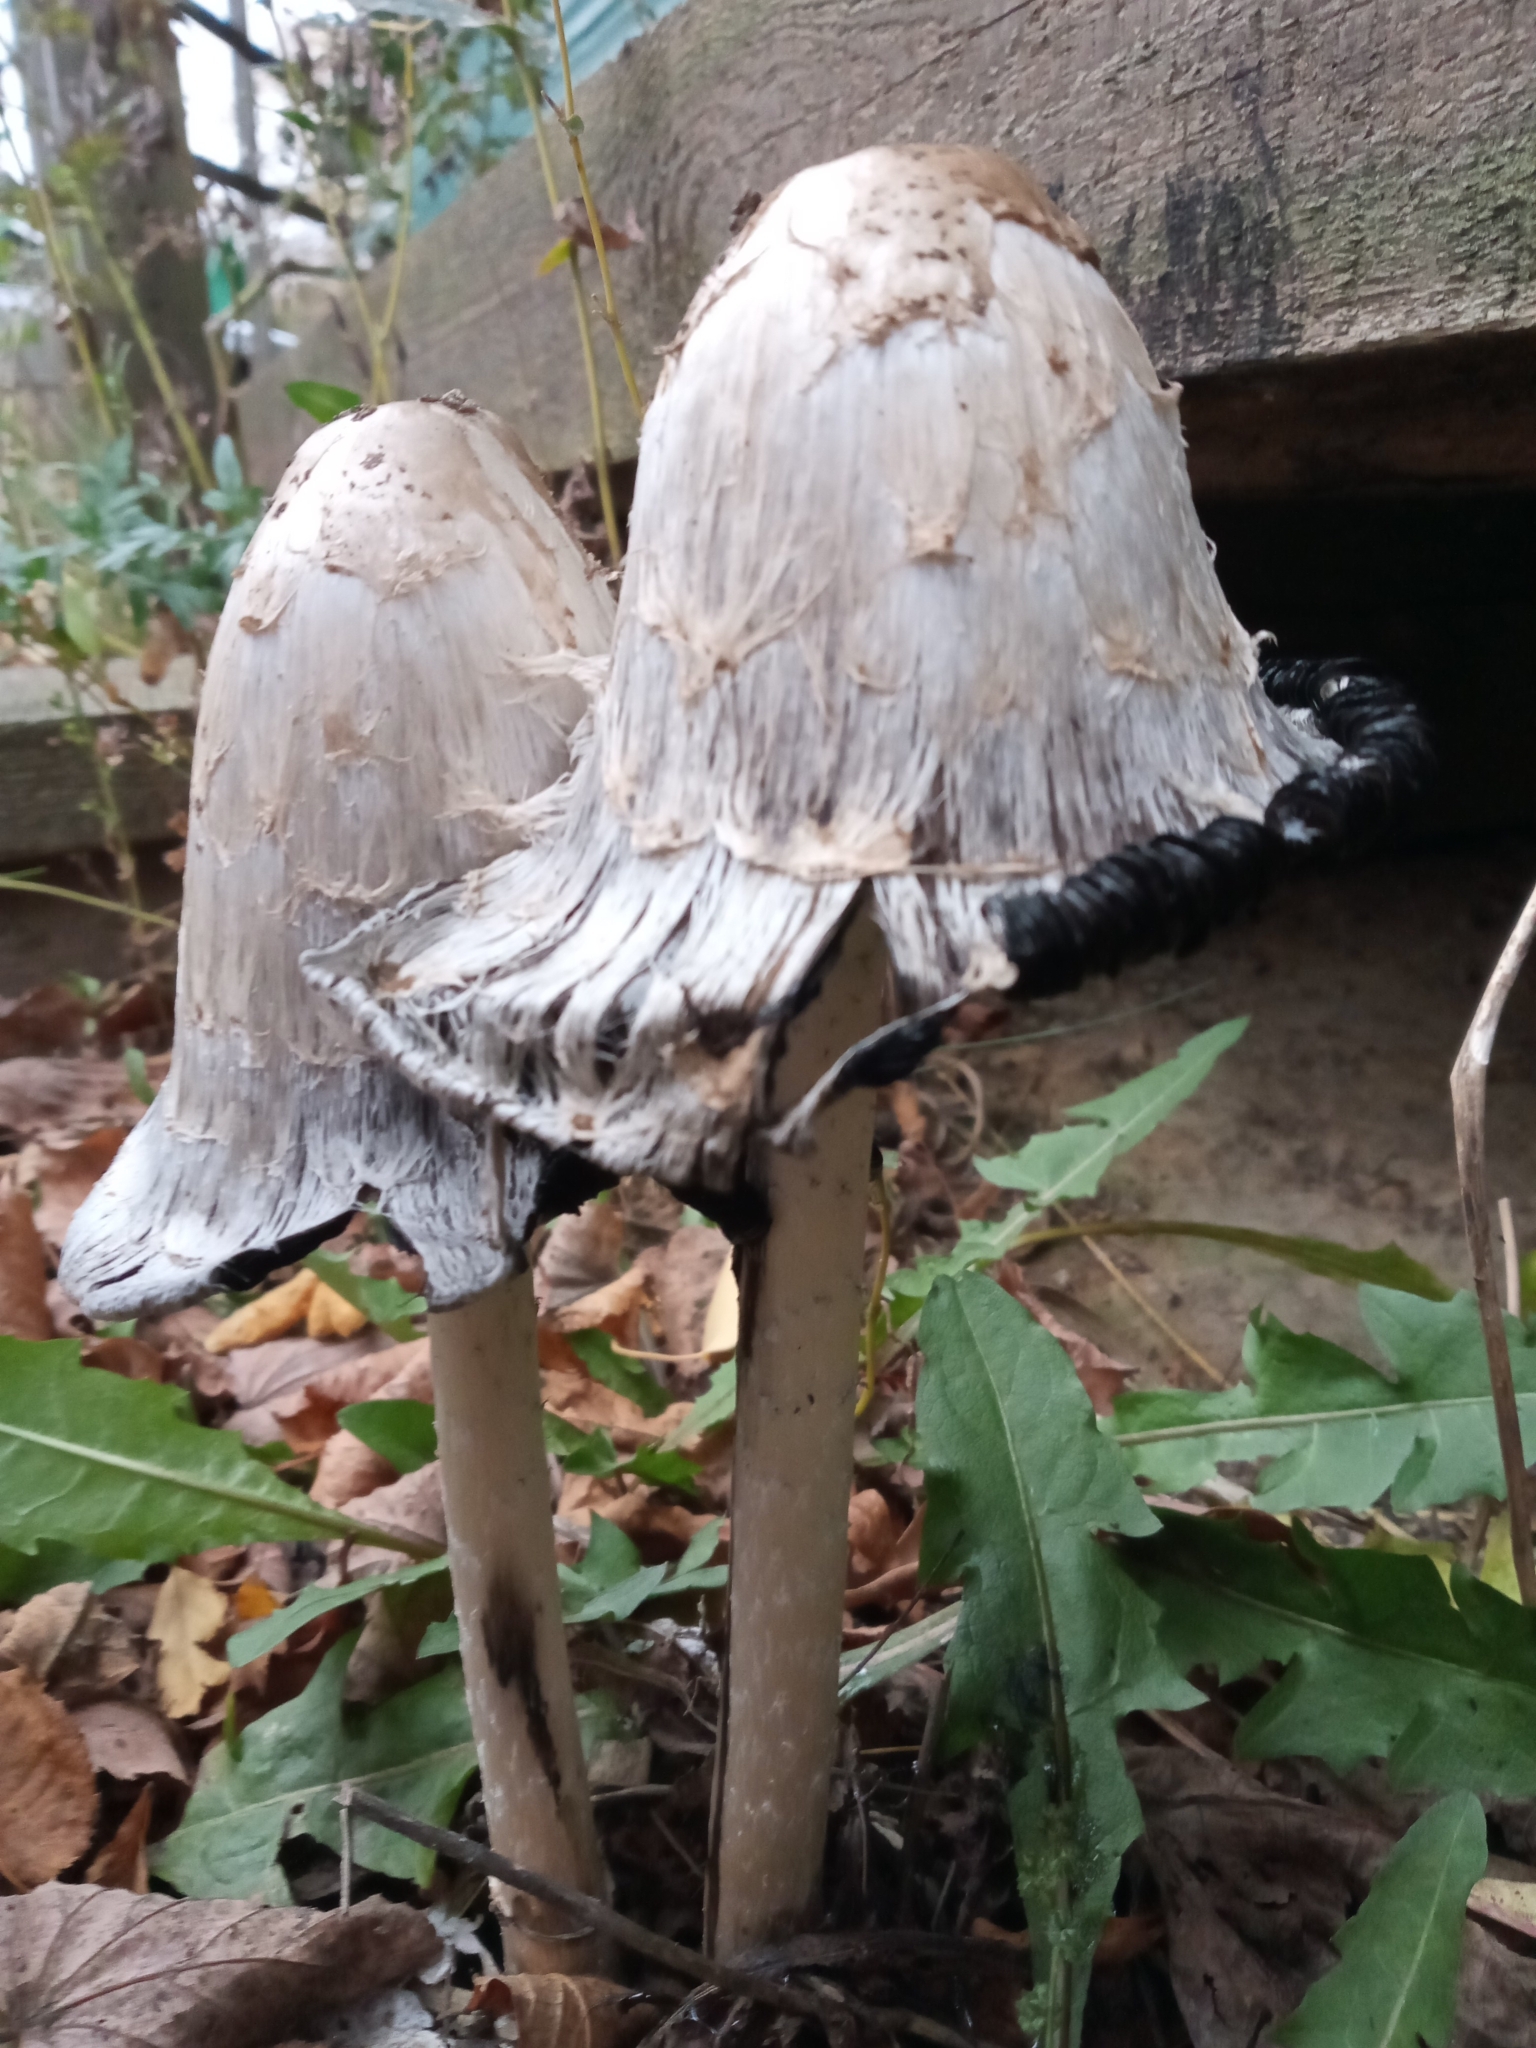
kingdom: Fungi
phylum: Basidiomycota
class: Agaricomycetes
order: Agaricales
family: Agaricaceae
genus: Coprinus
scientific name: Coprinus comatus
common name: Lawyer's wig
